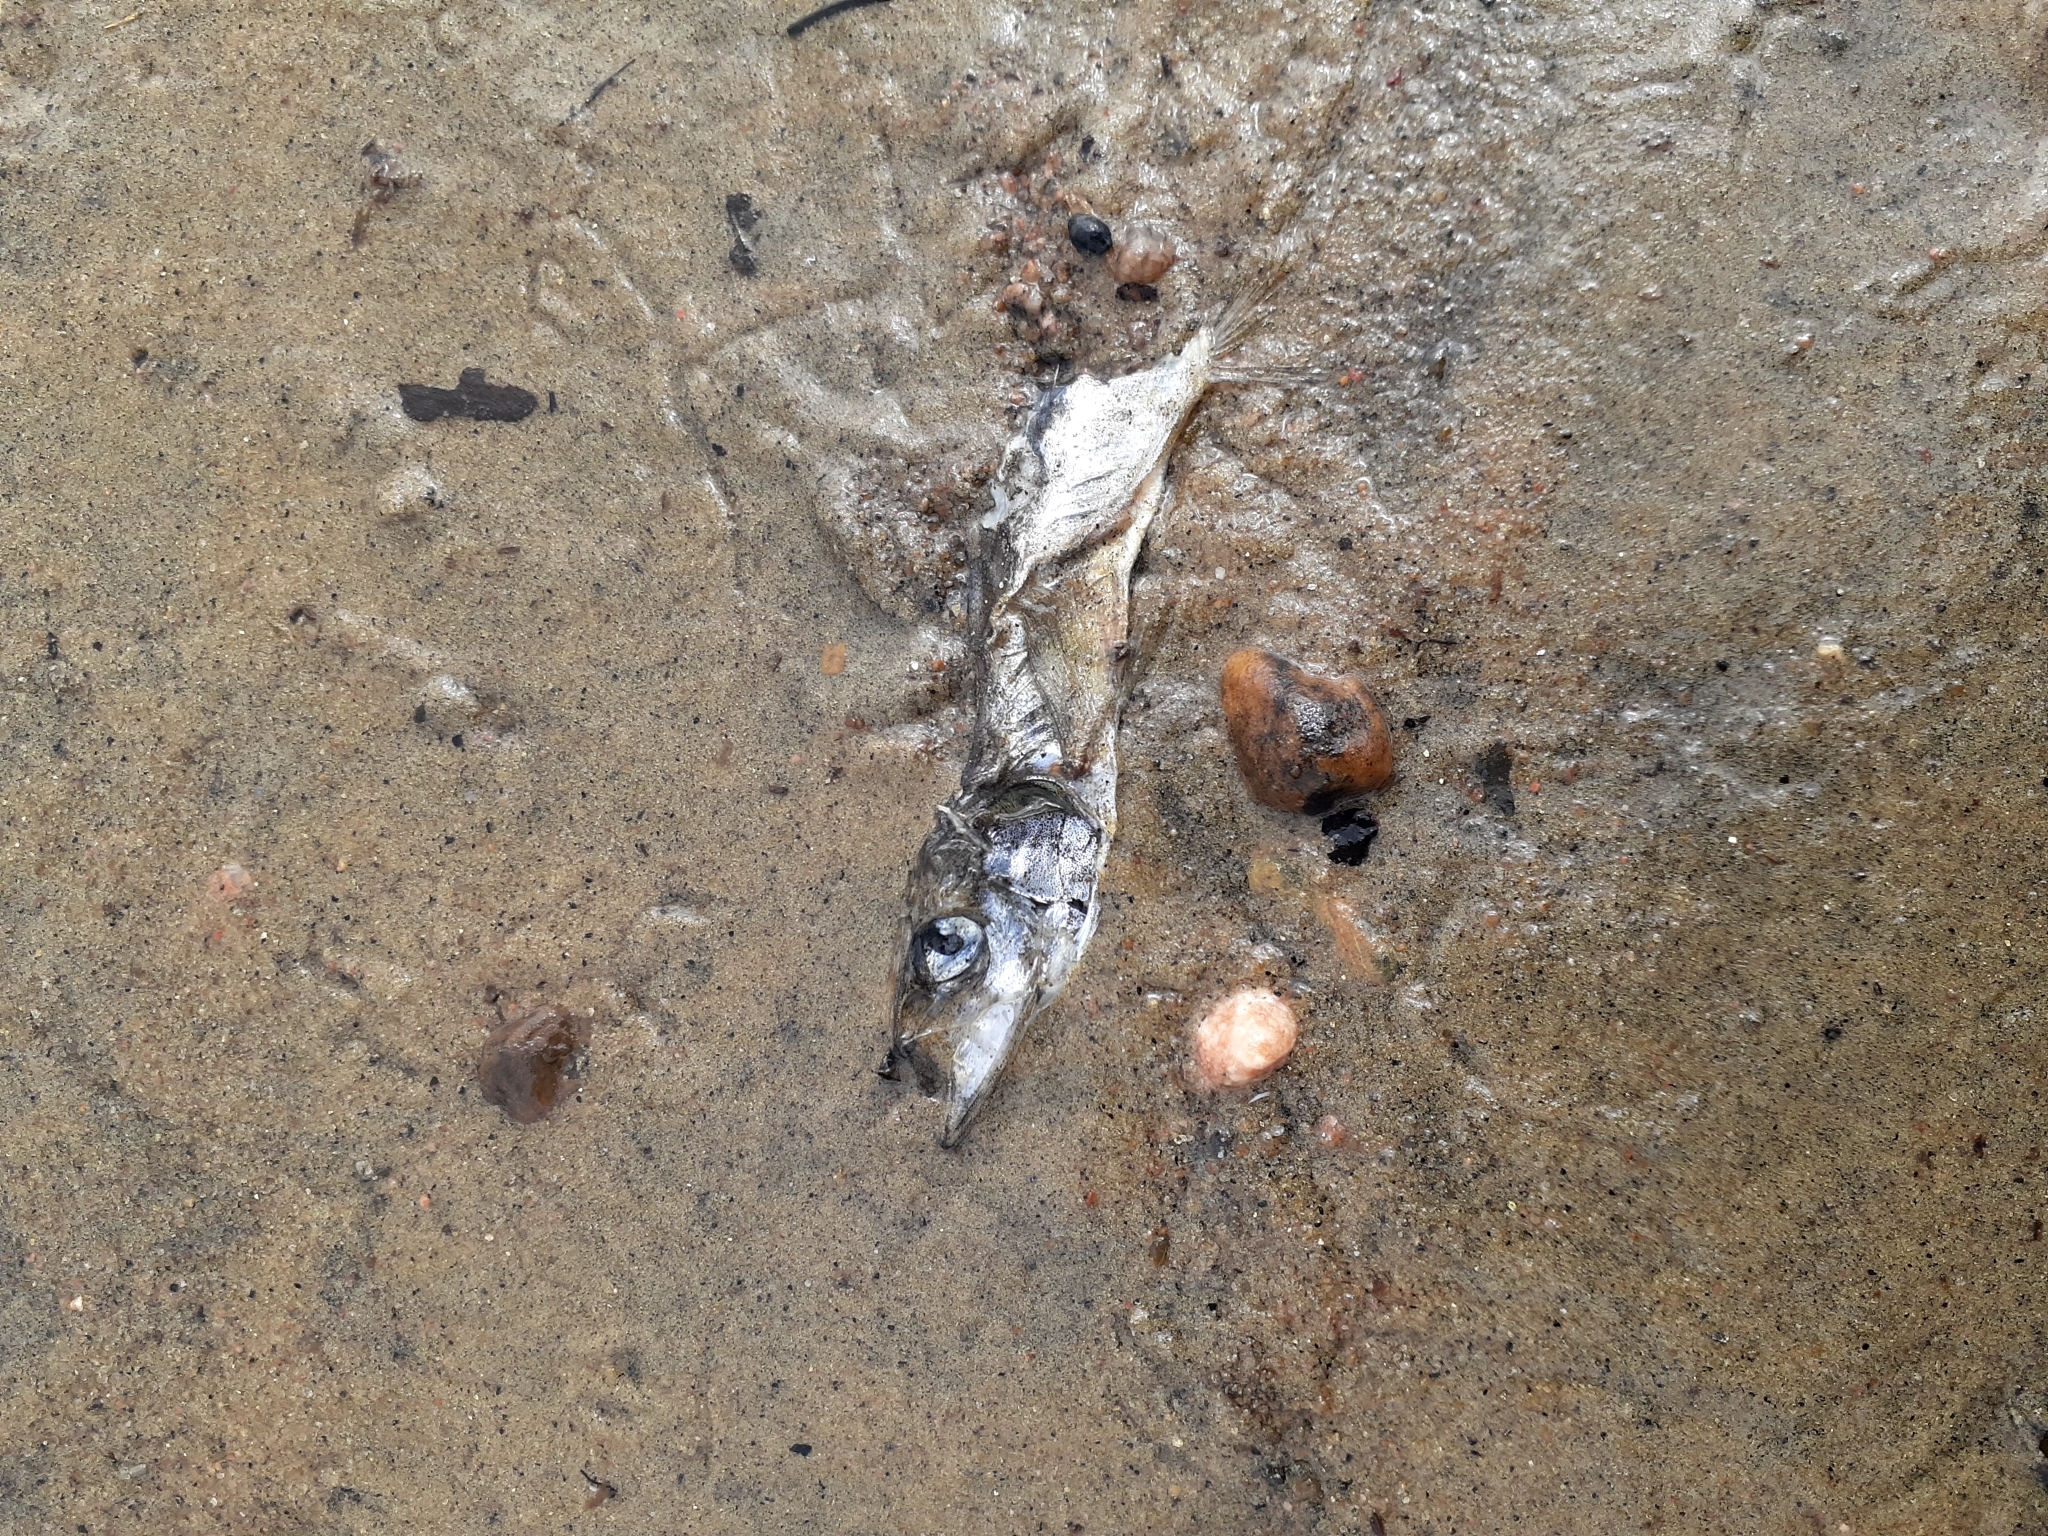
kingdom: Animalia
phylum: Chordata
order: Osmeriformes
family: Osmeridae
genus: Mallotus
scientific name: Mallotus villosus
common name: Capelin
